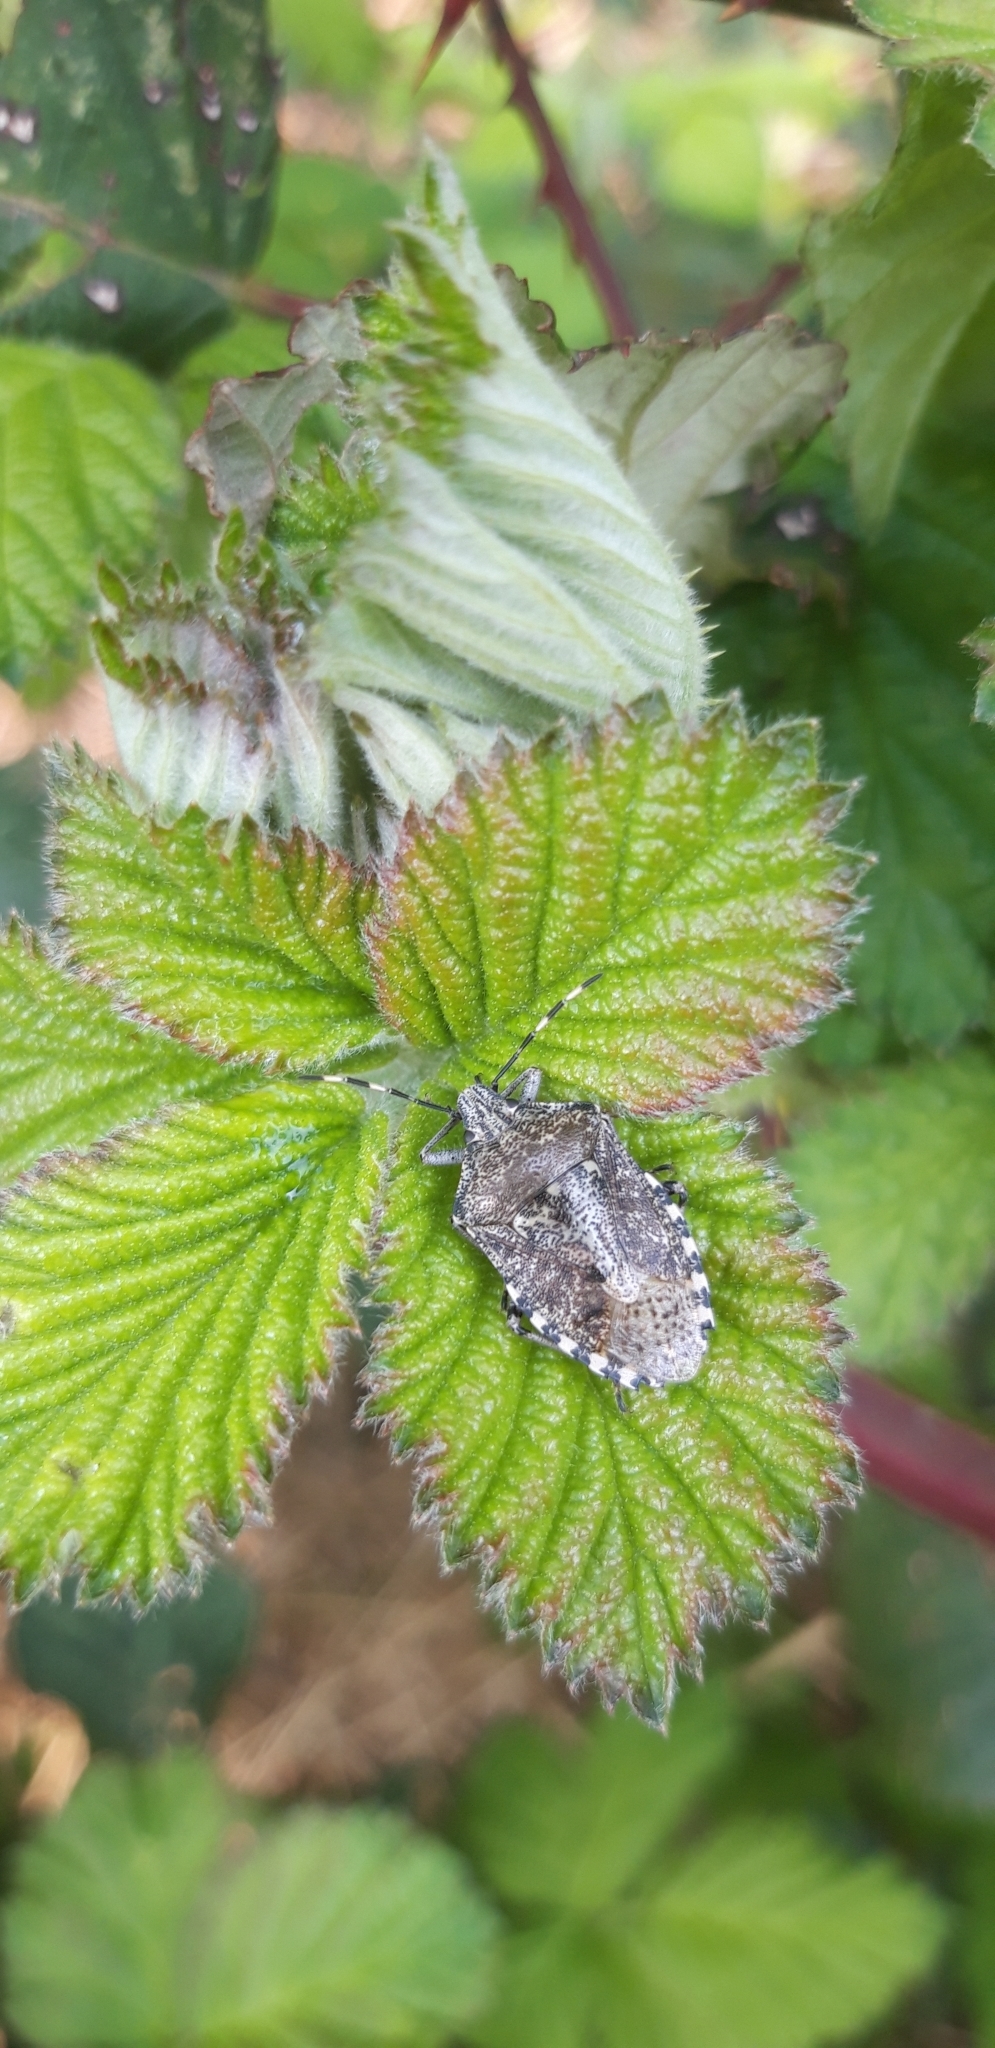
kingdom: Animalia
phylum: Arthropoda
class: Insecta
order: Hemiptera
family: Pentatomidae
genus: Rhaphigaster
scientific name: Rhaphigaster nebulosa
